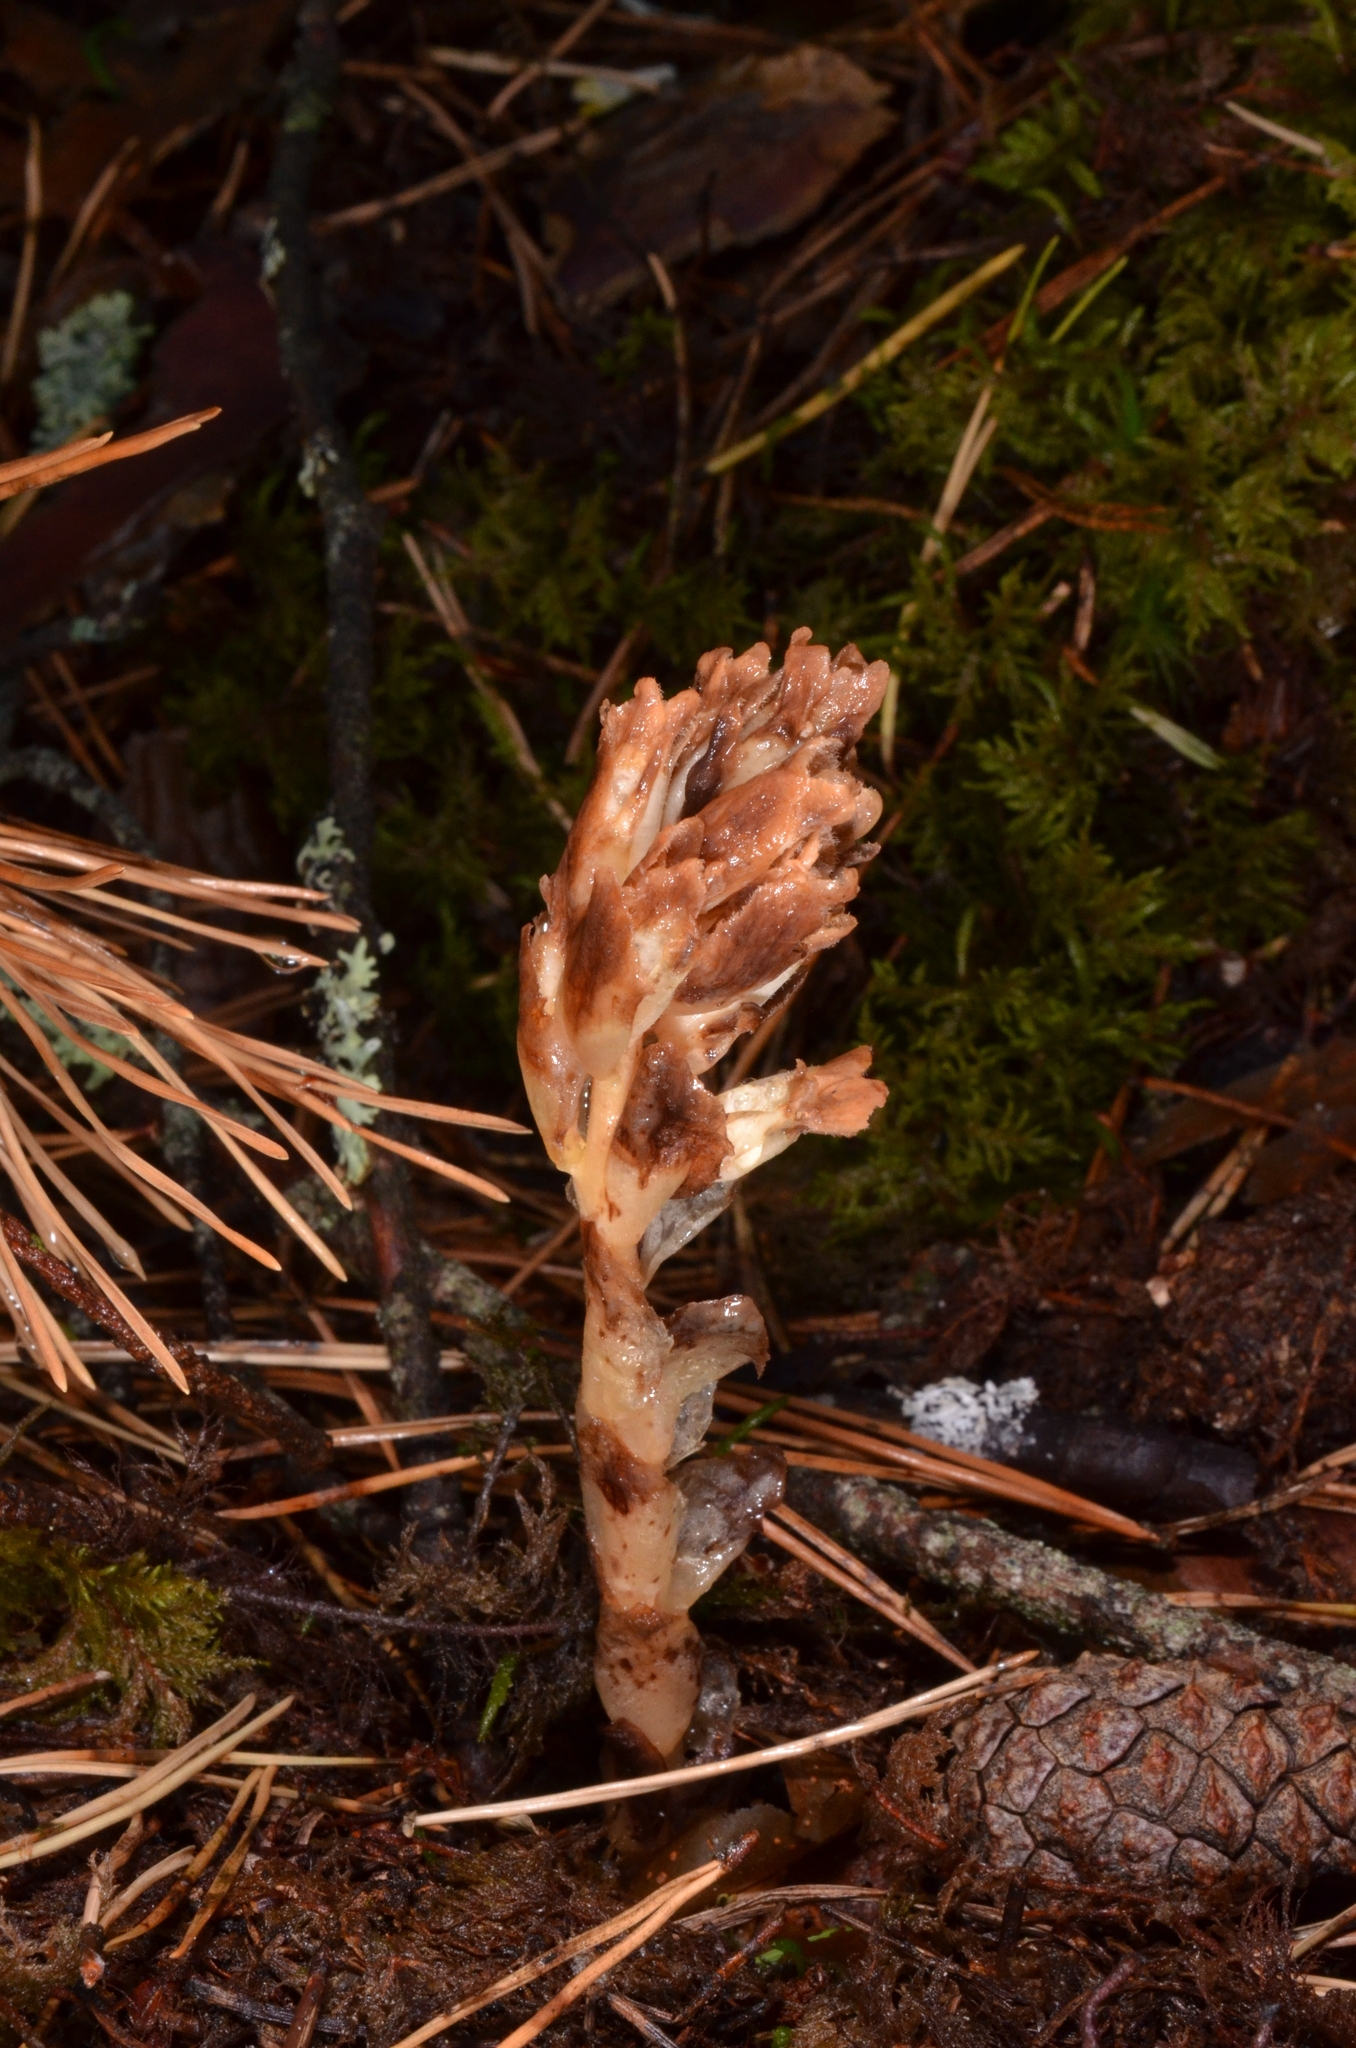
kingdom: Plantae
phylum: Tracheophyta
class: Magnoliopsida
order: Ericales
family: Ericaceae
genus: Hypopitys
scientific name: Hypopitys monotropa
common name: Yellow bird's-nest
